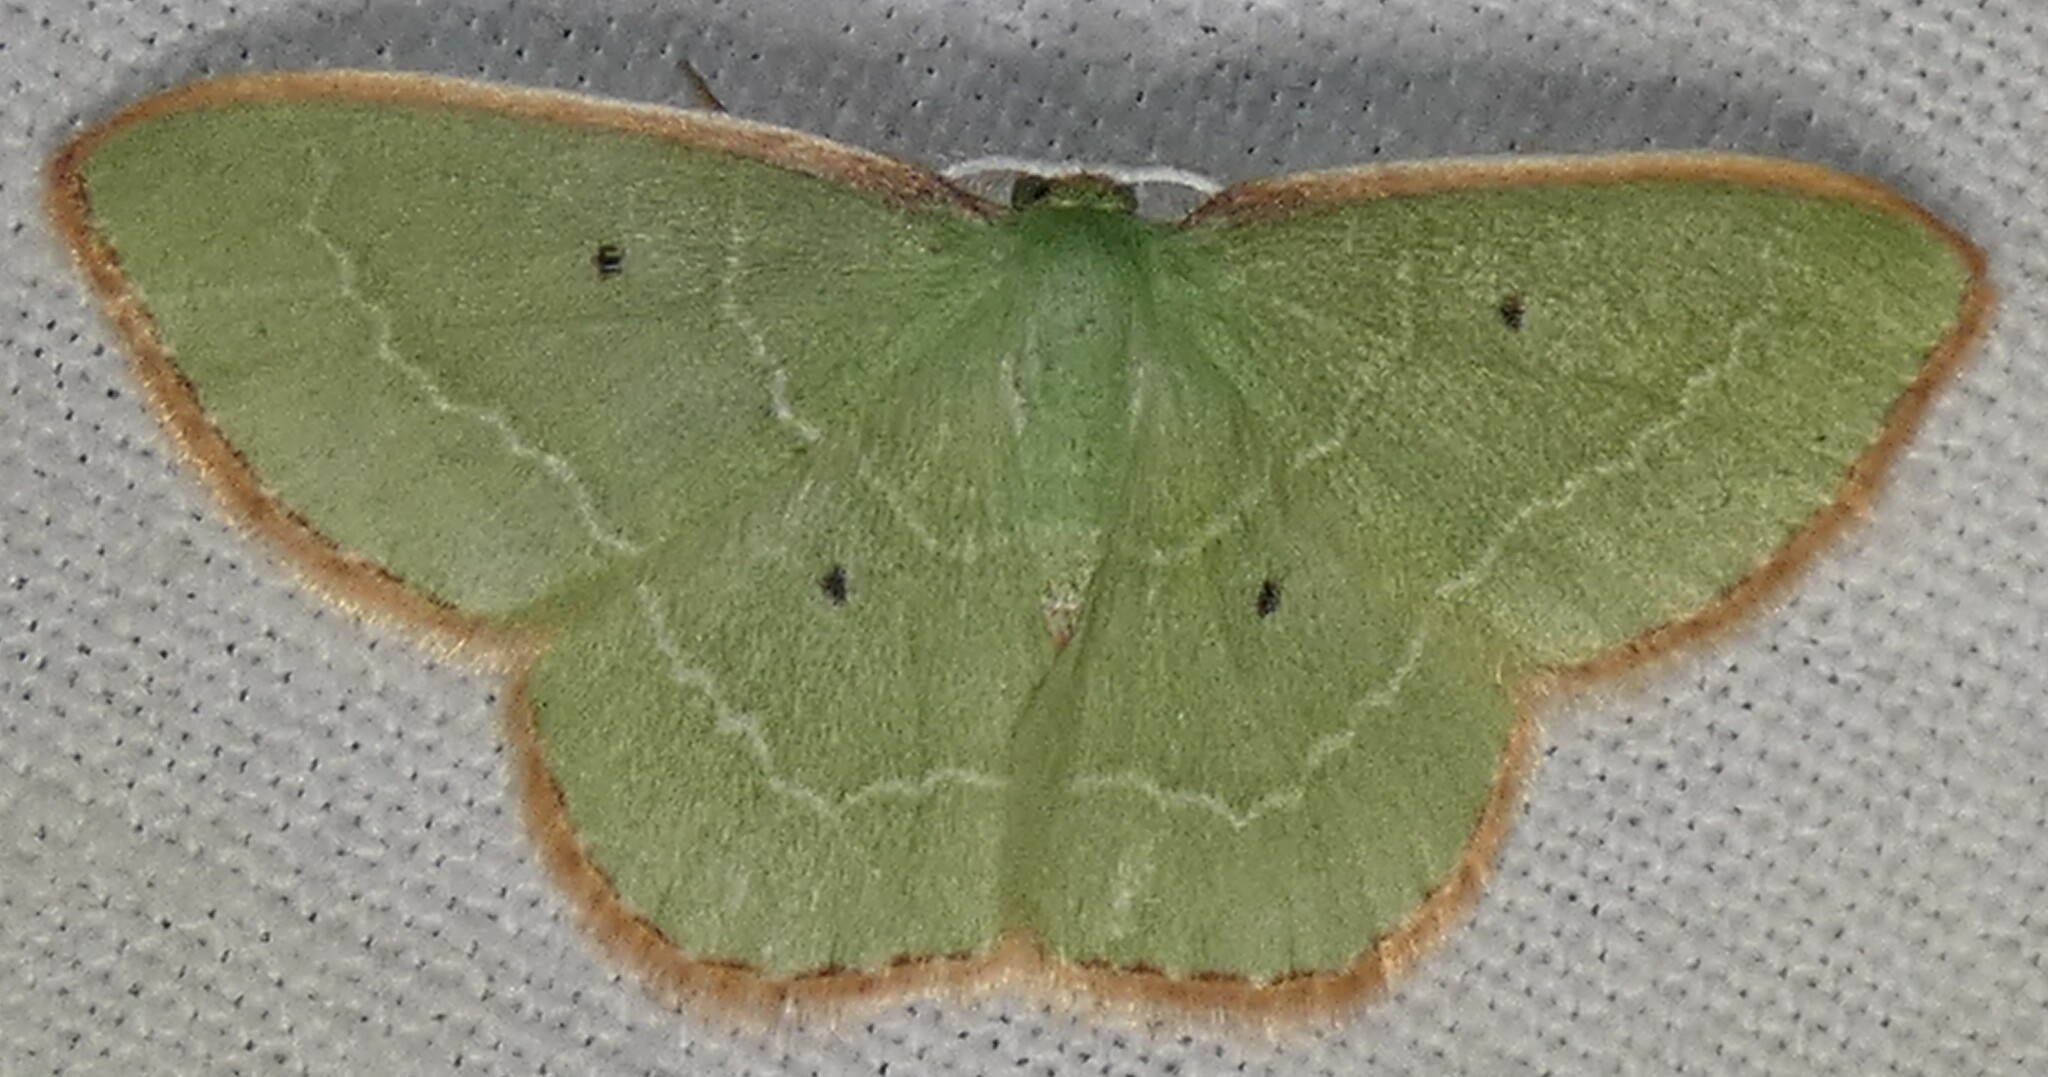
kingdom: Animalia
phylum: Arthropoda
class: Insecta
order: Lepidoptera
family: Geometridae
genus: Nemoria
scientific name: Nemoria elfa
